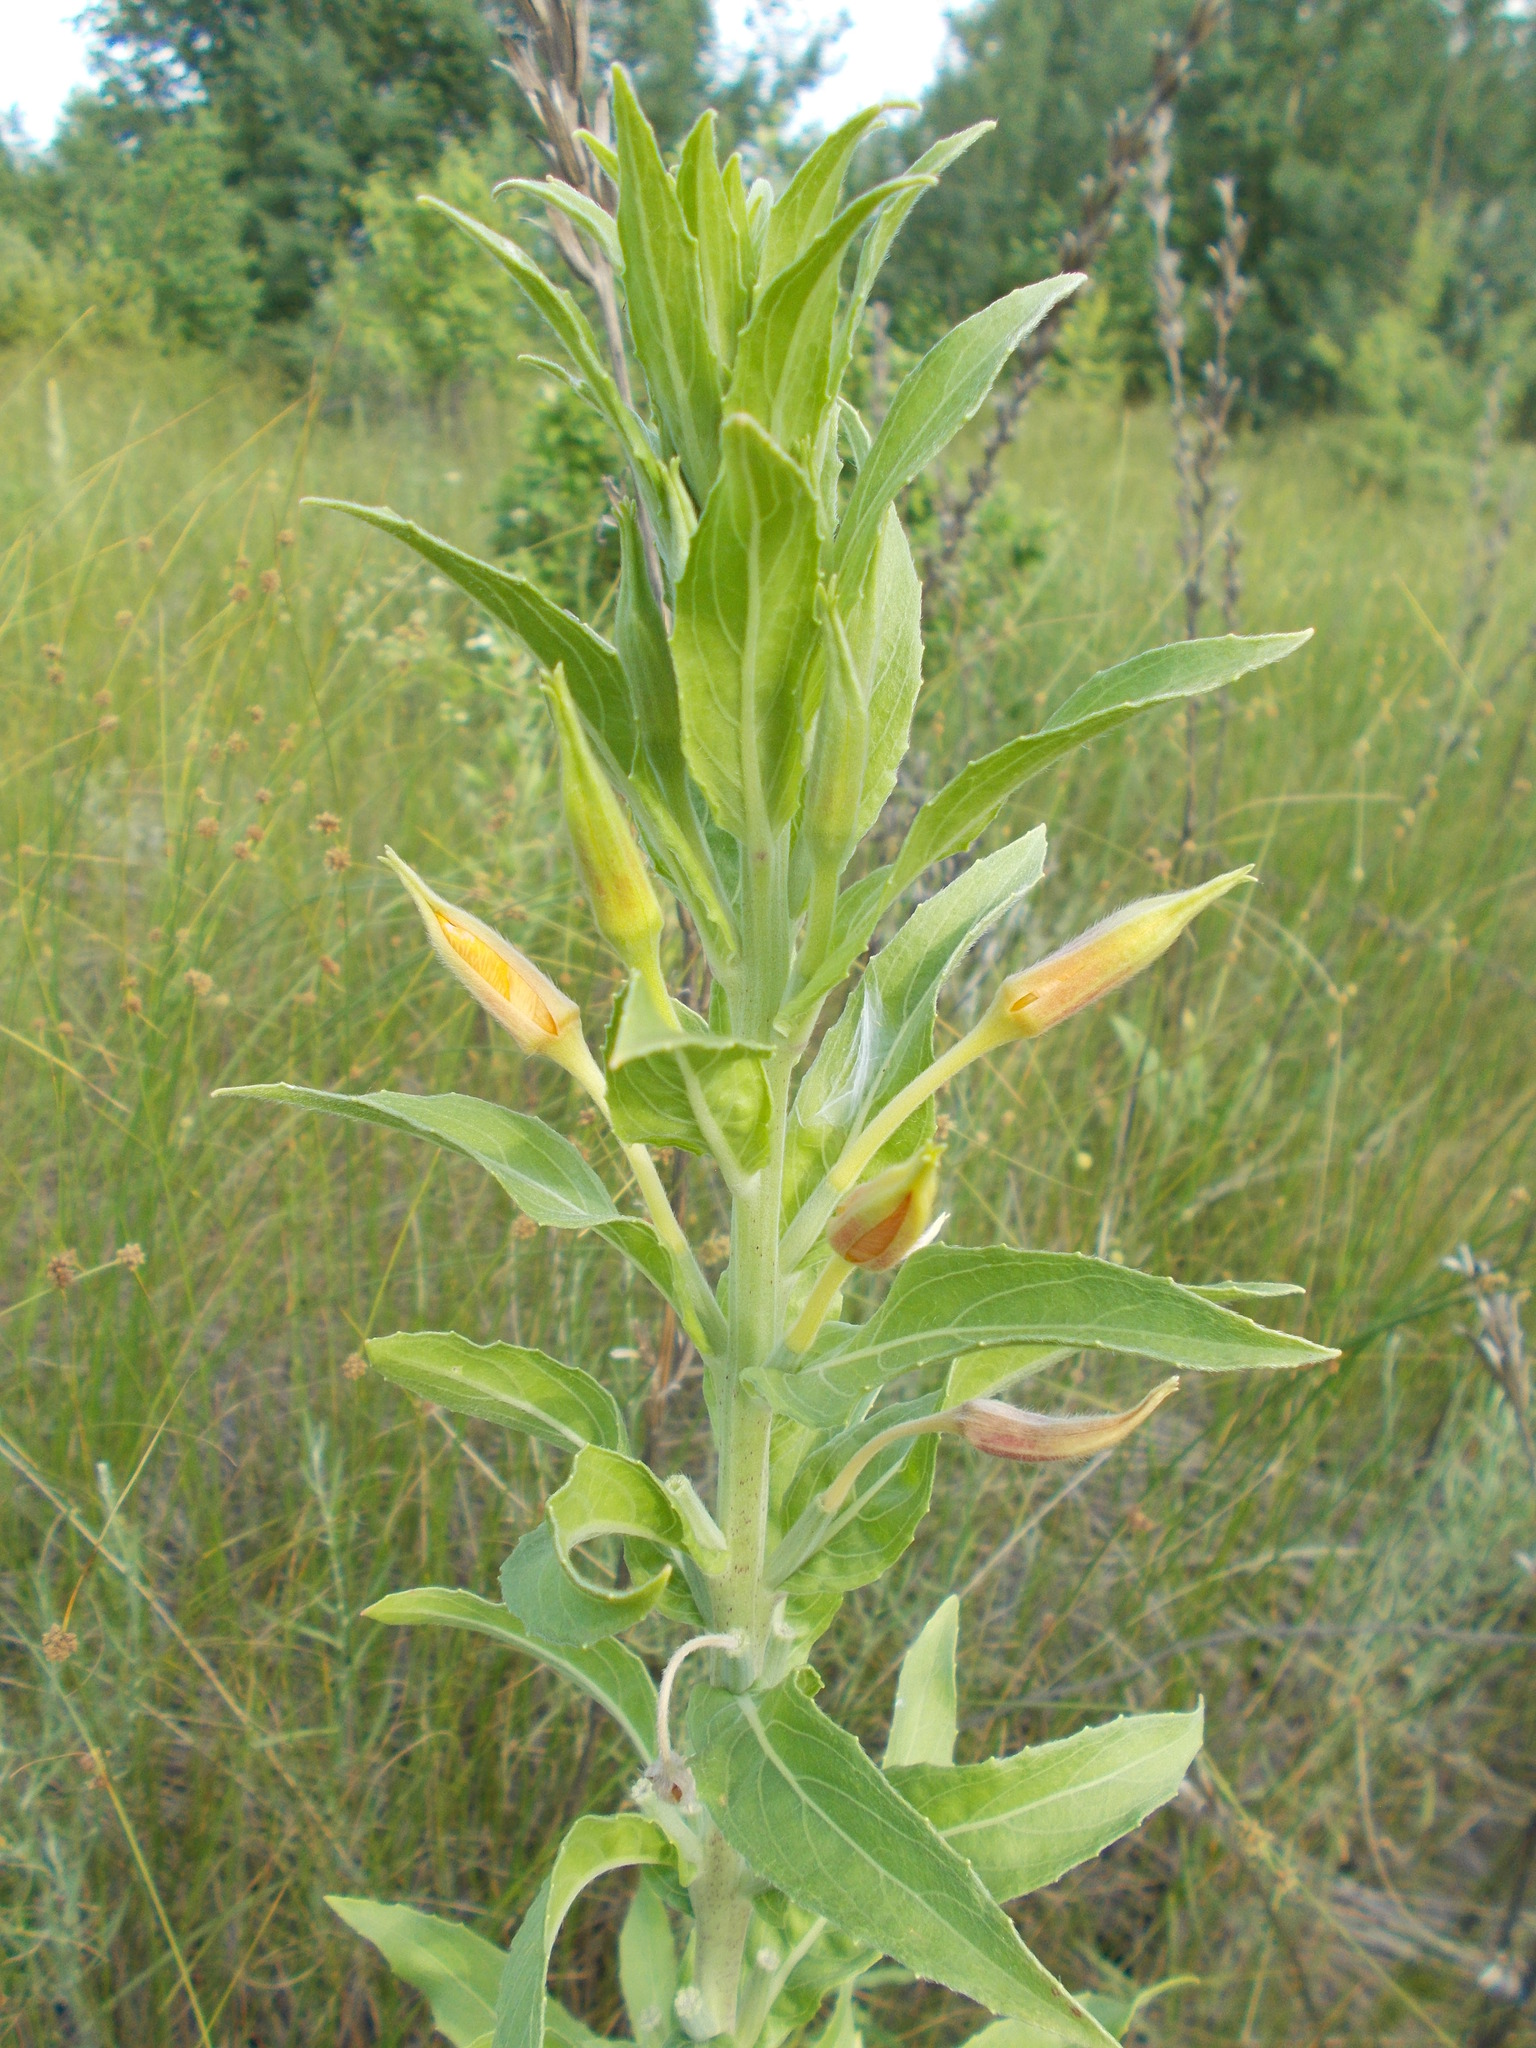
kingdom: Plantae
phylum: Tracheophyta
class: Magnoliopsida
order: Myrtales
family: Onagraceae
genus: Oenothera
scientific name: Oenothera villosa
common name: Hairy evening-primrose
